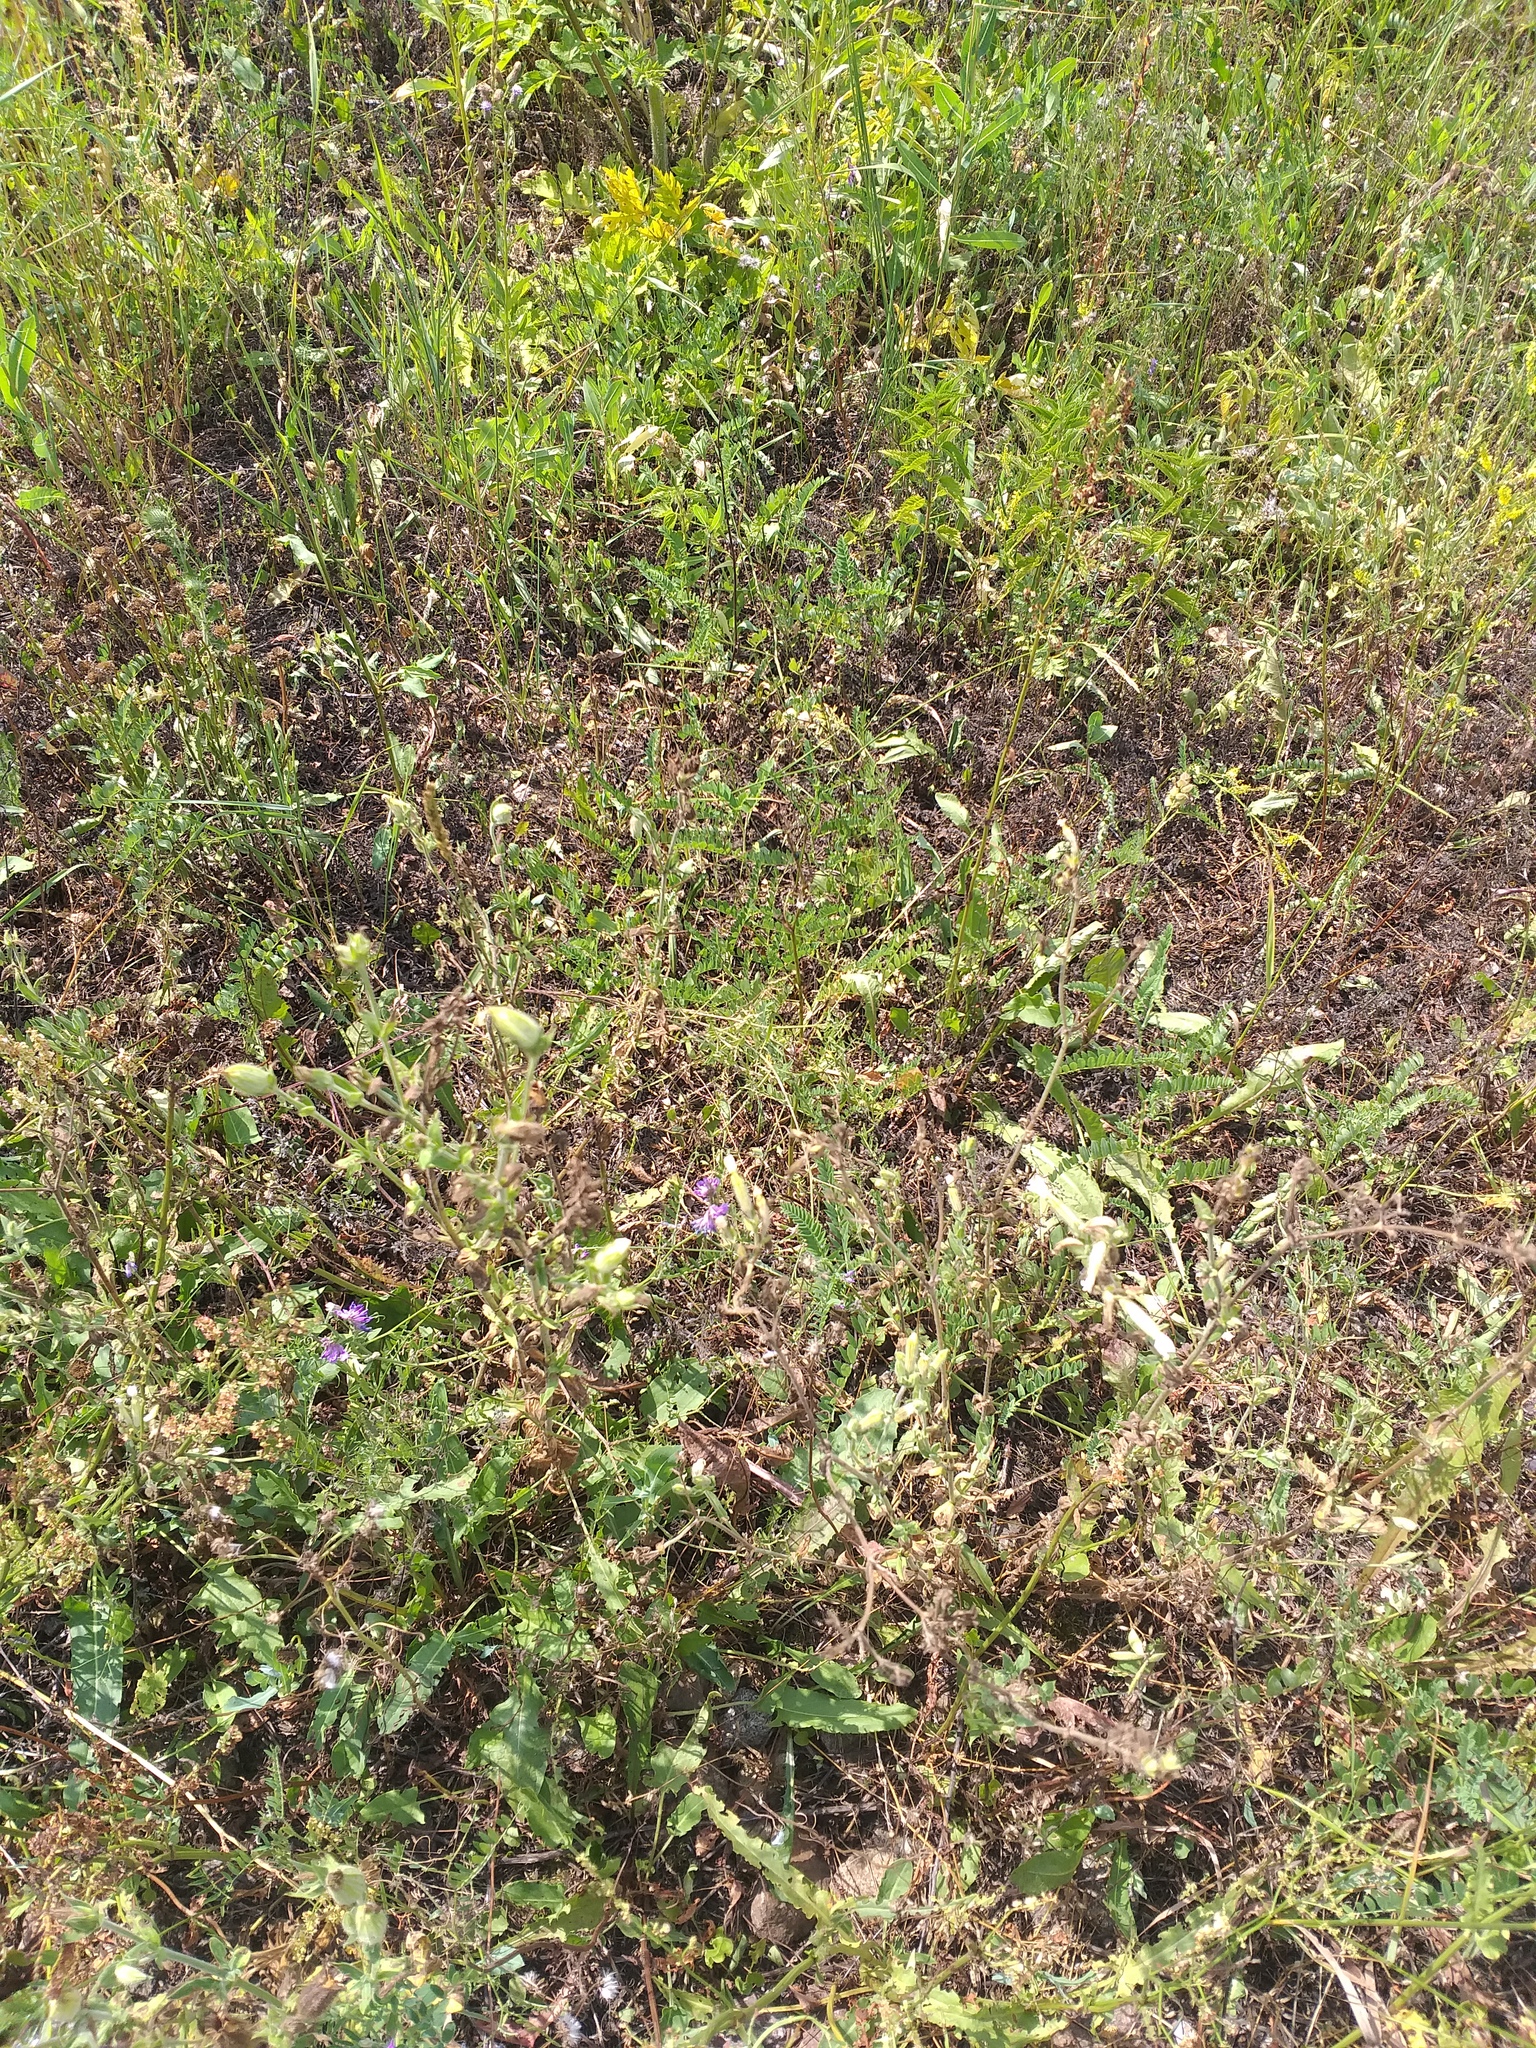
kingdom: Plantae
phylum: Tracheophyta
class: Magnoliopsida
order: Caryophyllales
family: Caryophyllaceae
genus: Silene
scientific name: Silene latifolia
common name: White campion
